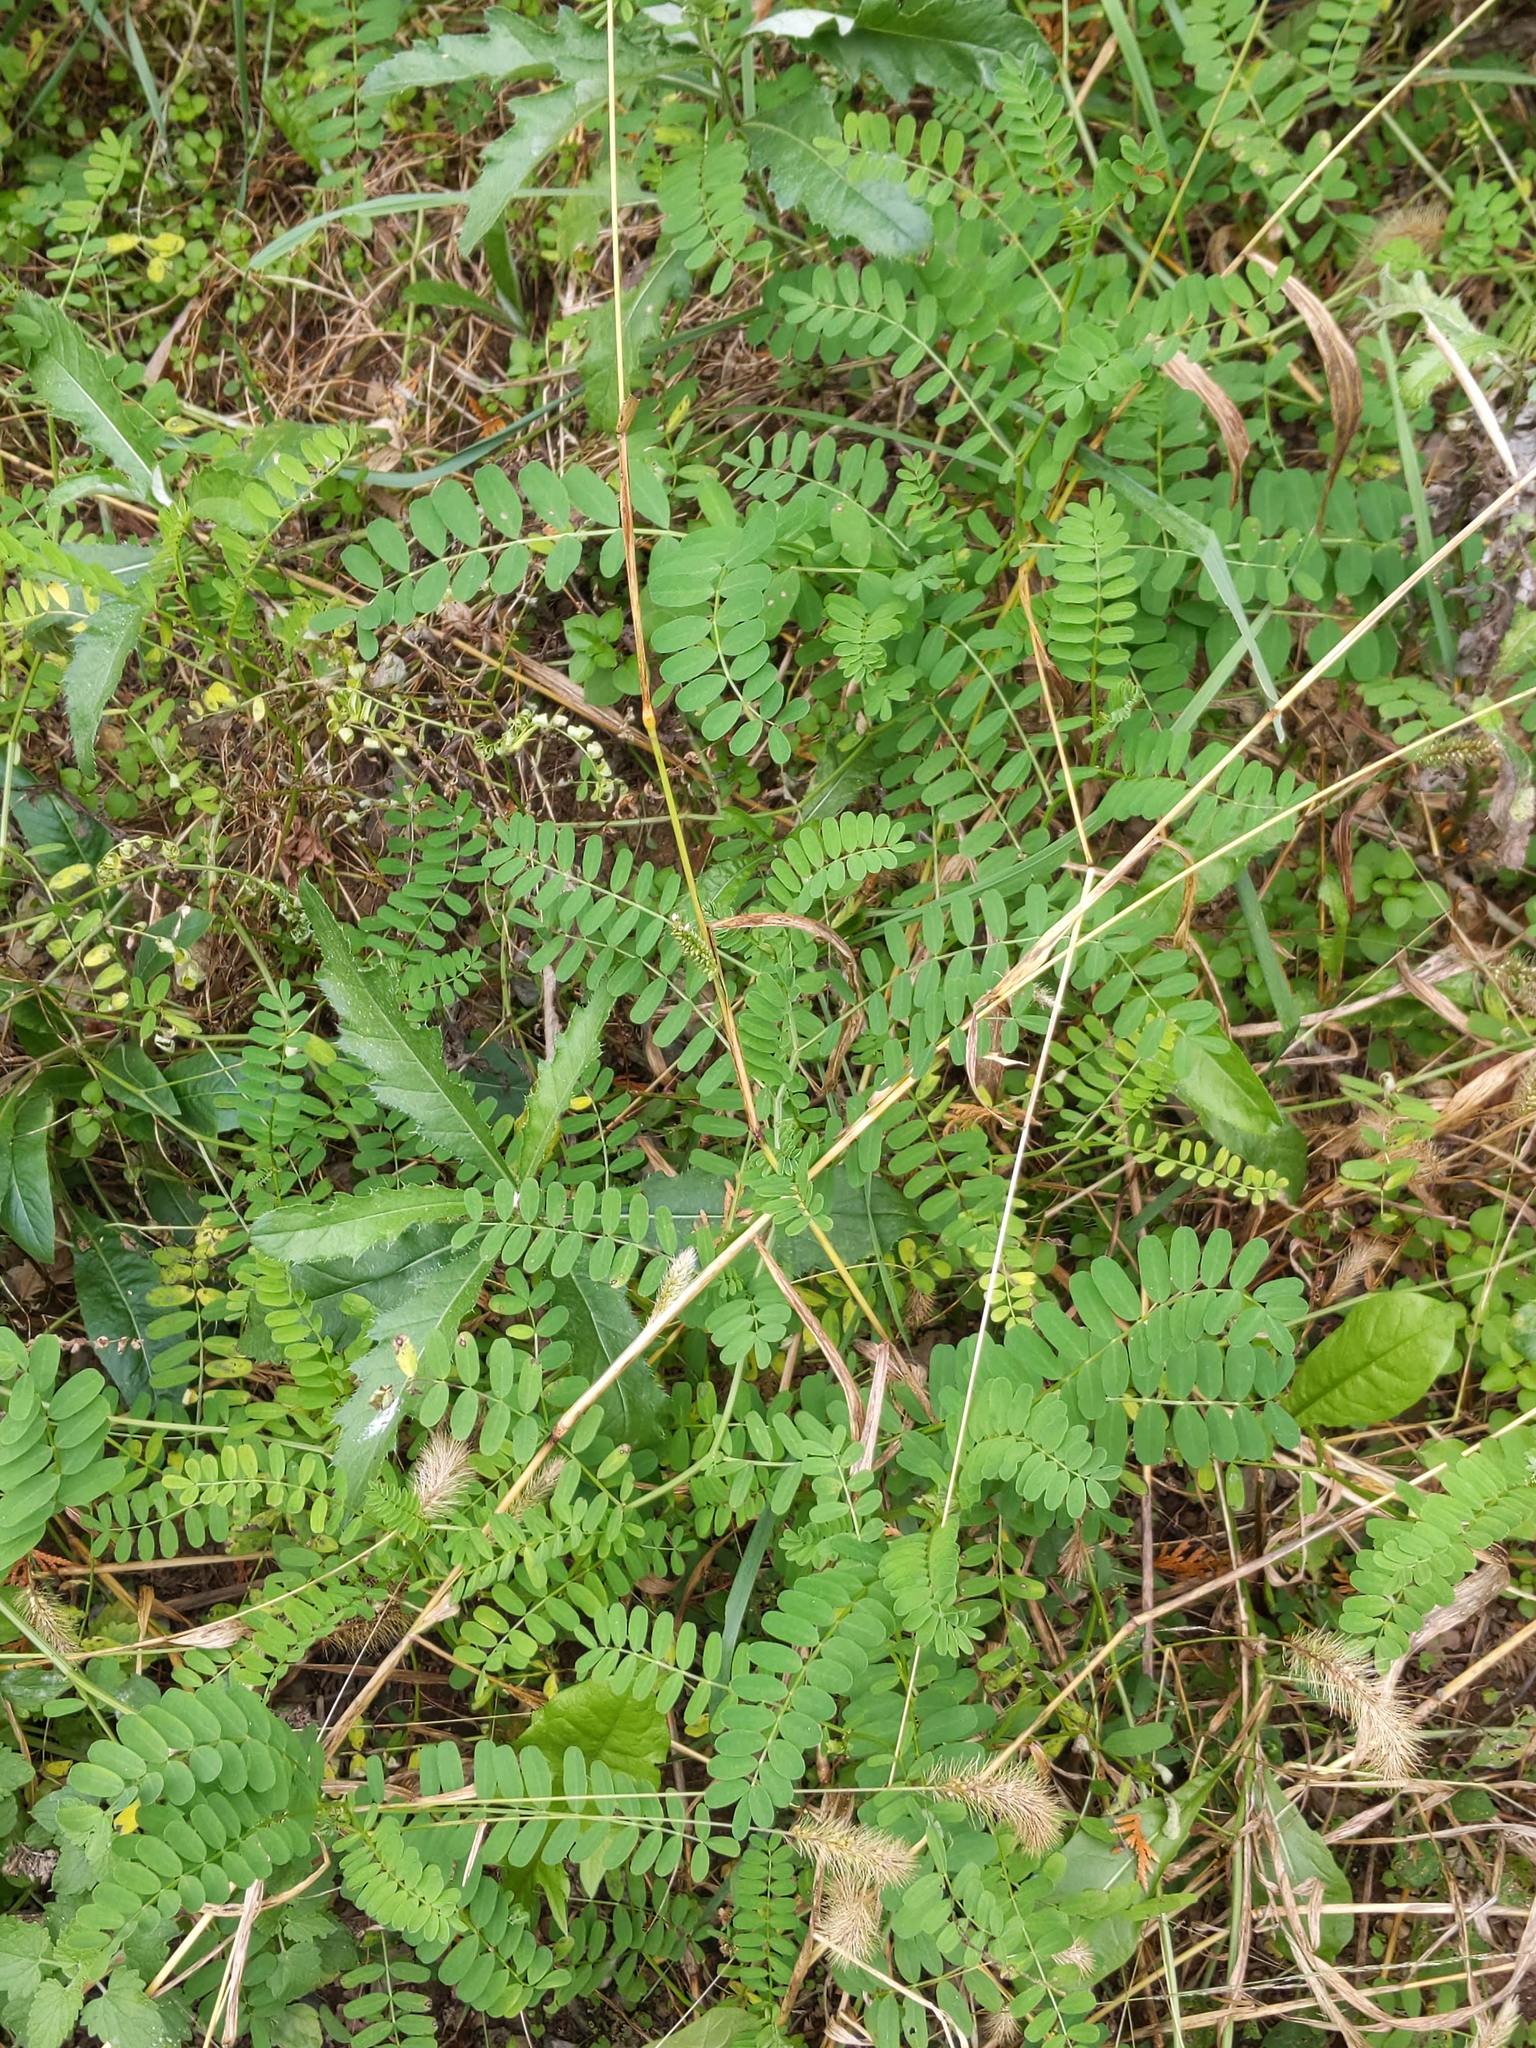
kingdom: Plantae
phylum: Tracheophyta
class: Magnoliopsida
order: Fabales
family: Fabaceae
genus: Coronilla
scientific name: Coronilla varia
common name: Crownvetch
